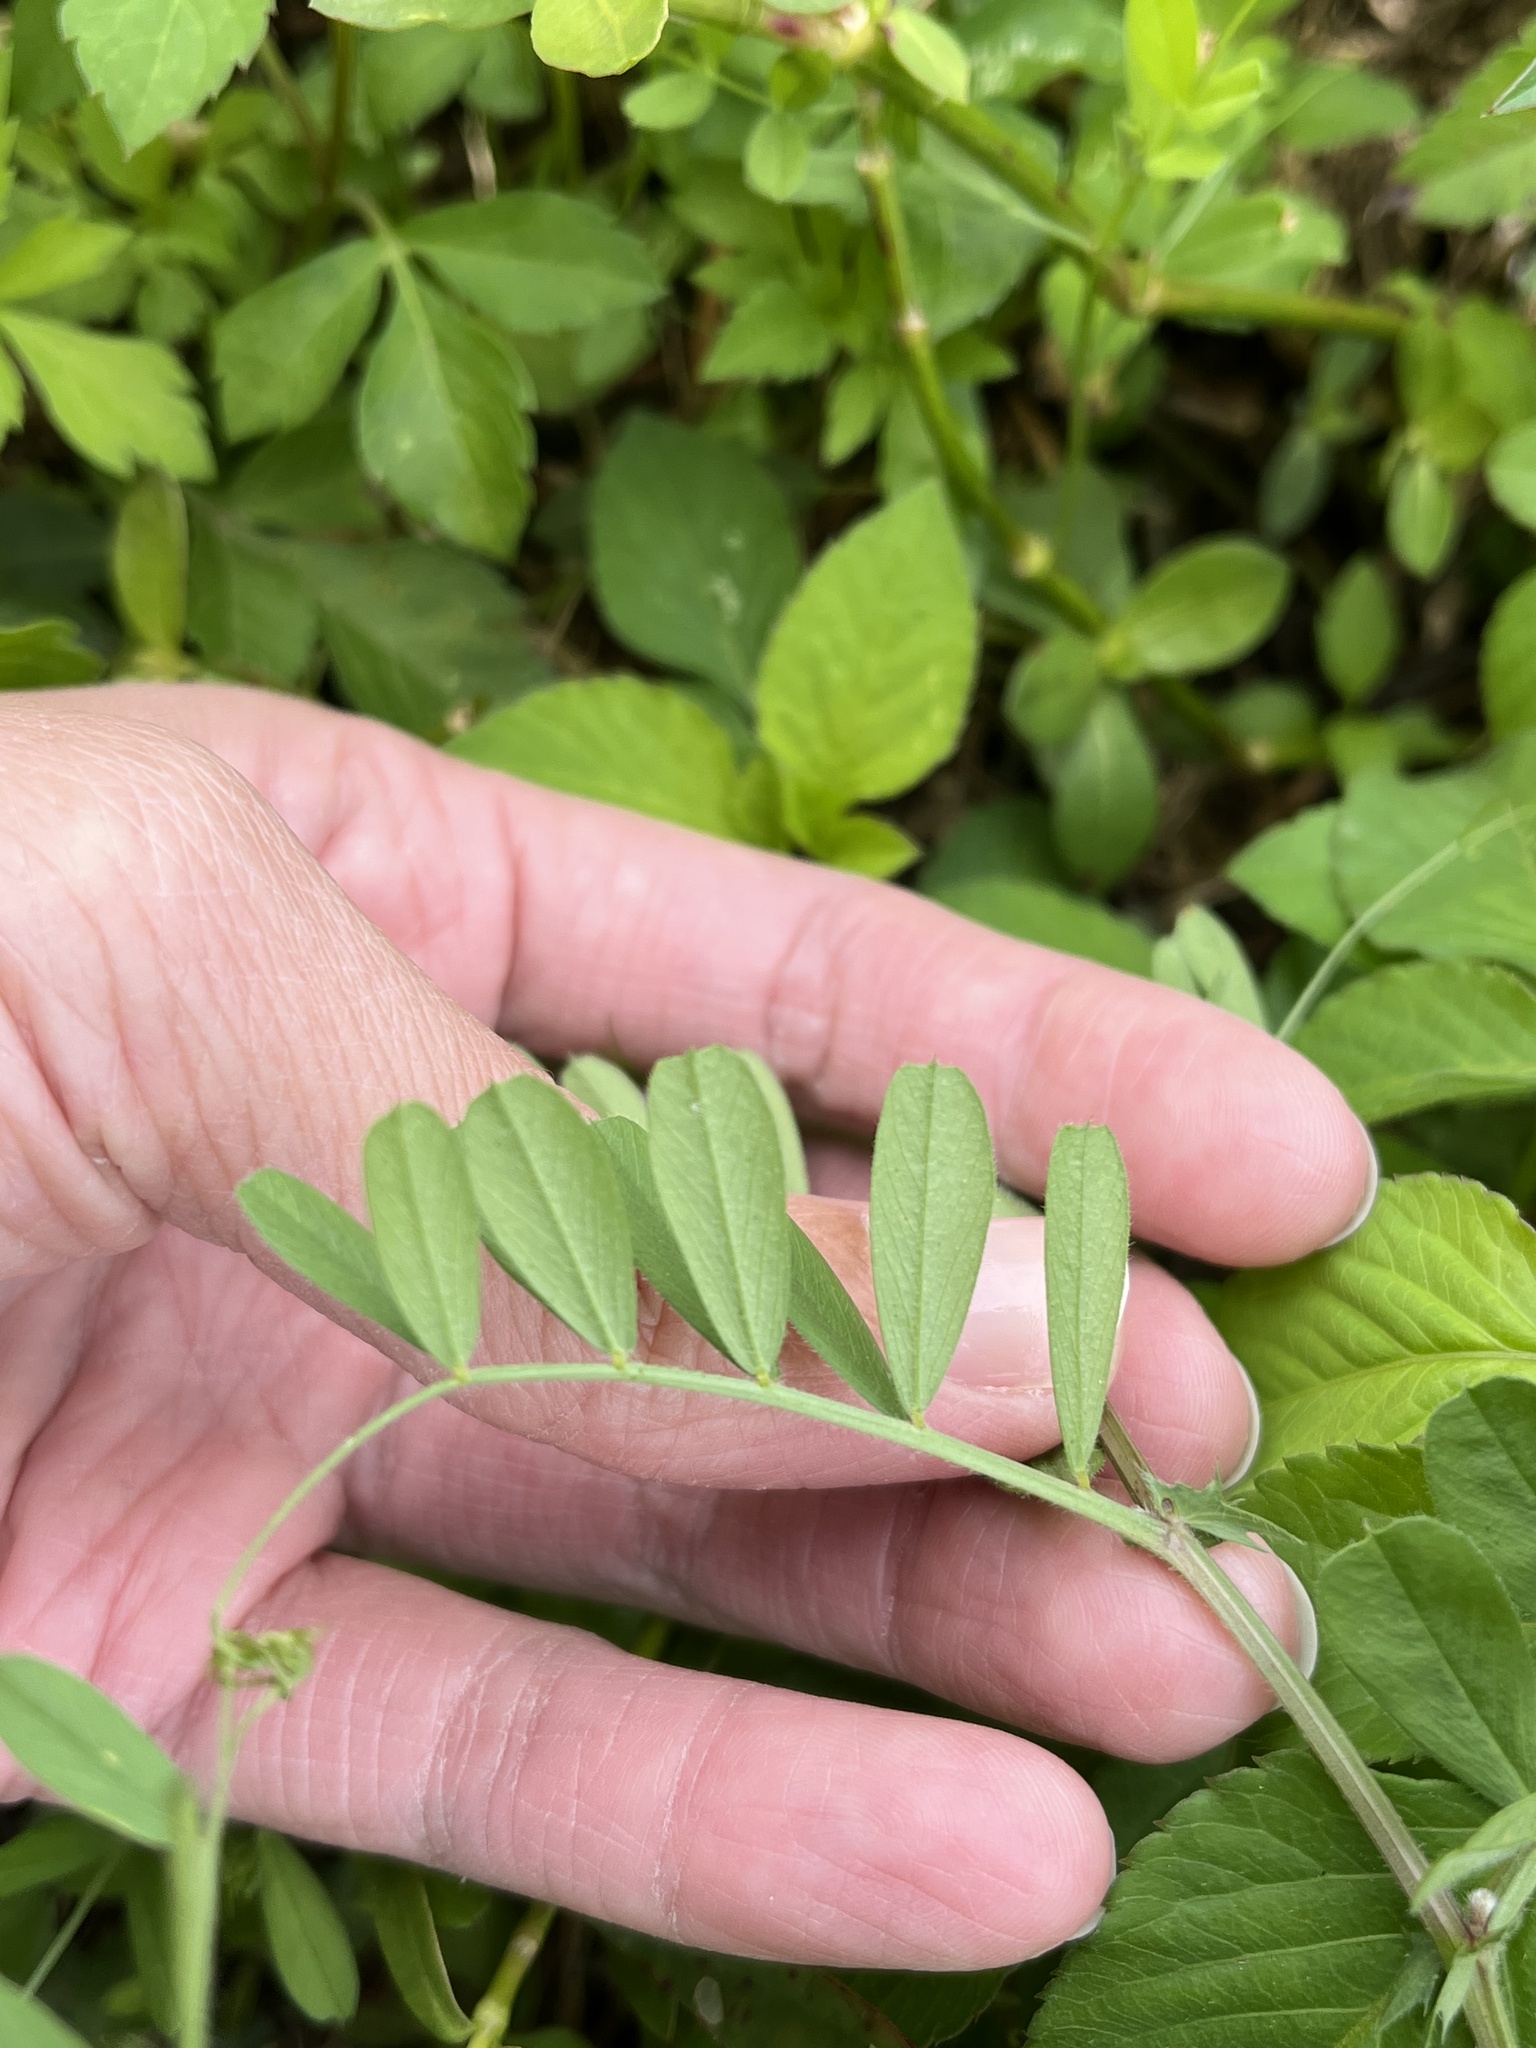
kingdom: Plantae
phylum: Tracheophyta
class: Magnoliopsida
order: Fabales
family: Fabaceae
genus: Vicia
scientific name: Vicia sativa
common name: Garden vetch
